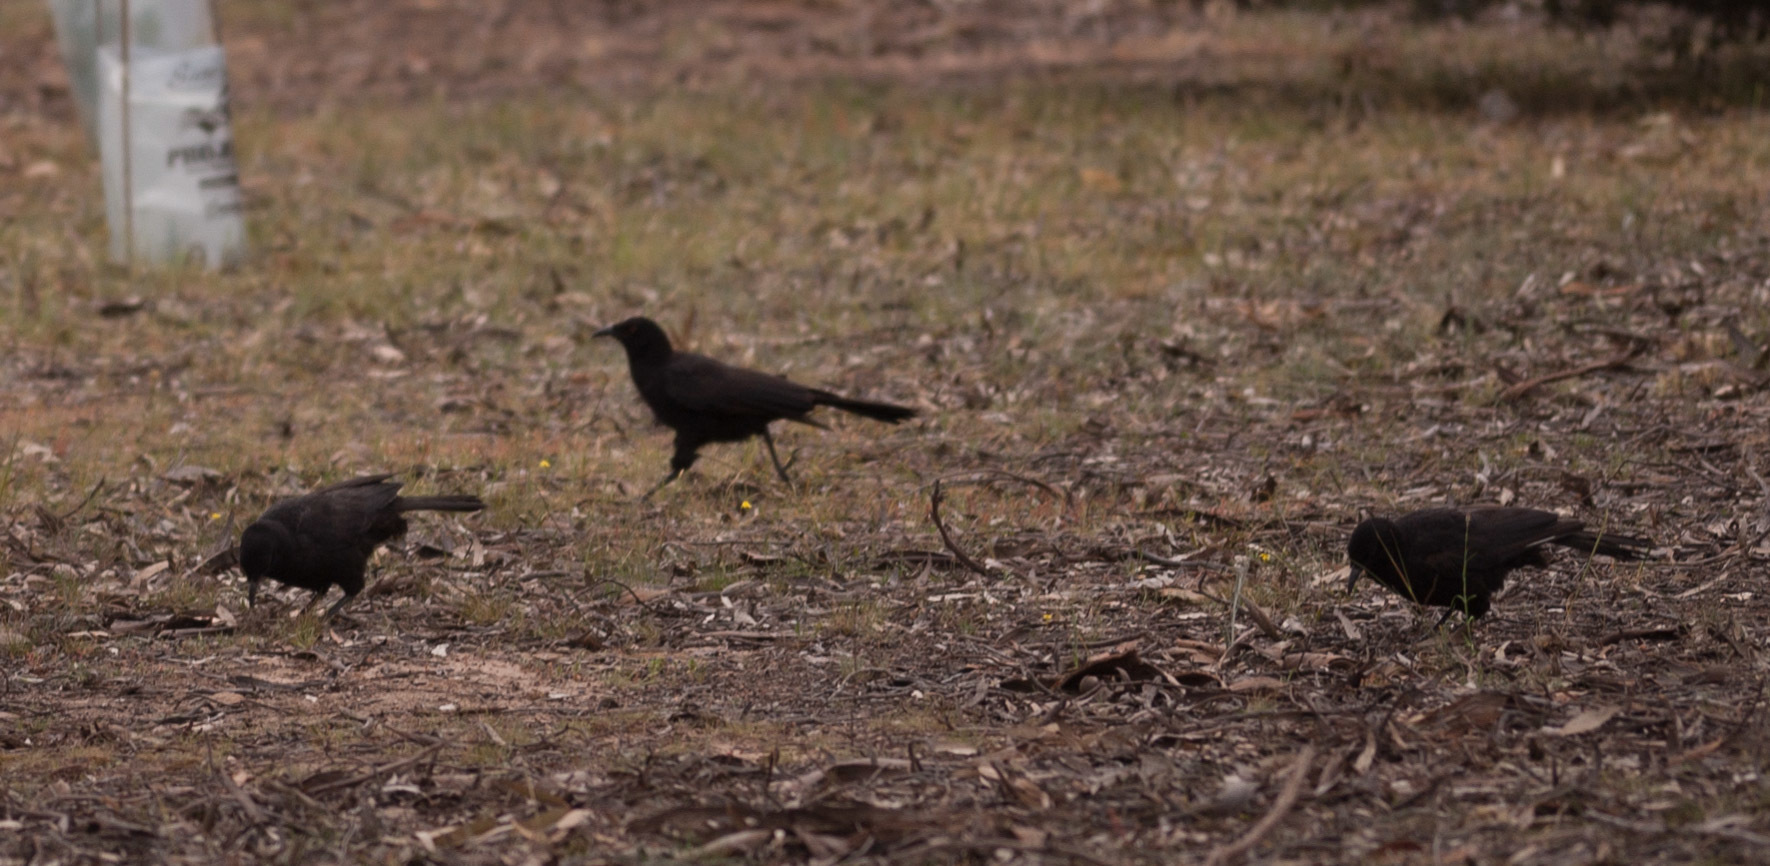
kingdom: Animalia
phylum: Chordata
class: Aves
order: Passeriformes
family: Corcoracidae
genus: Corcorax
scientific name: Corcorax melanoramphos
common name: White-winged chough
